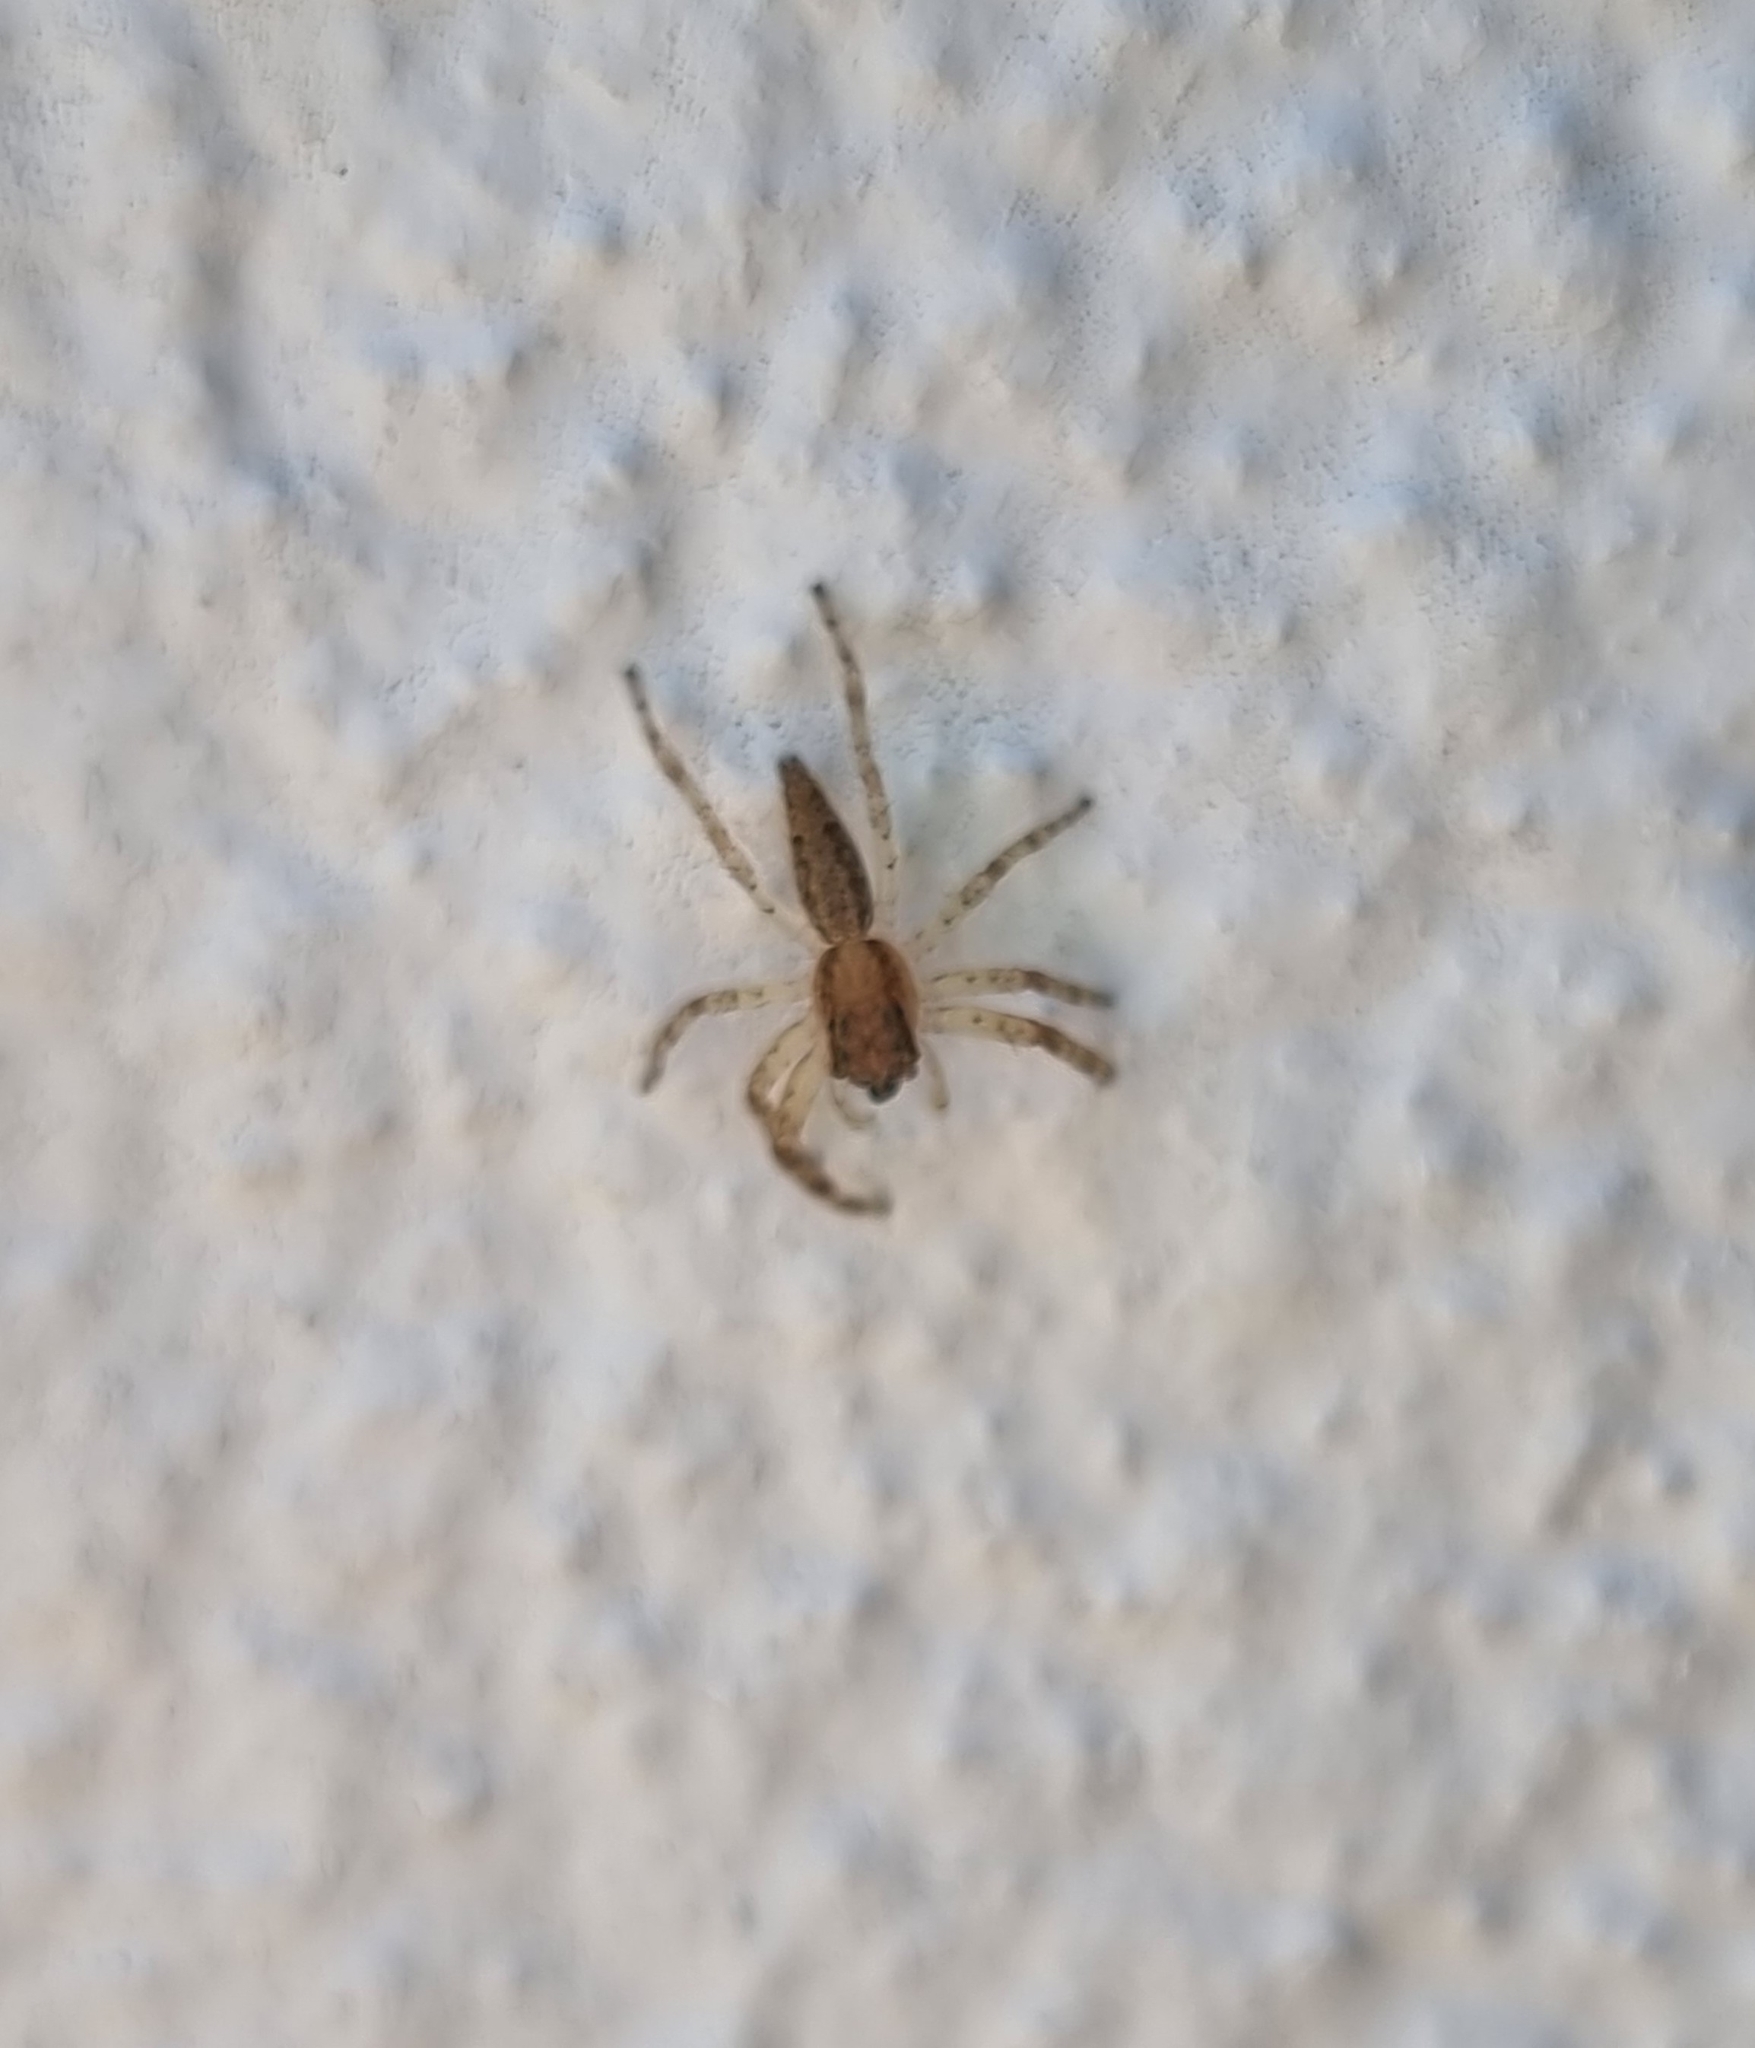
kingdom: Animalia
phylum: Arthropoda
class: Arachnida
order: Araneae
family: Salticidae
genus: Helpis
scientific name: Helpis minitabunda
